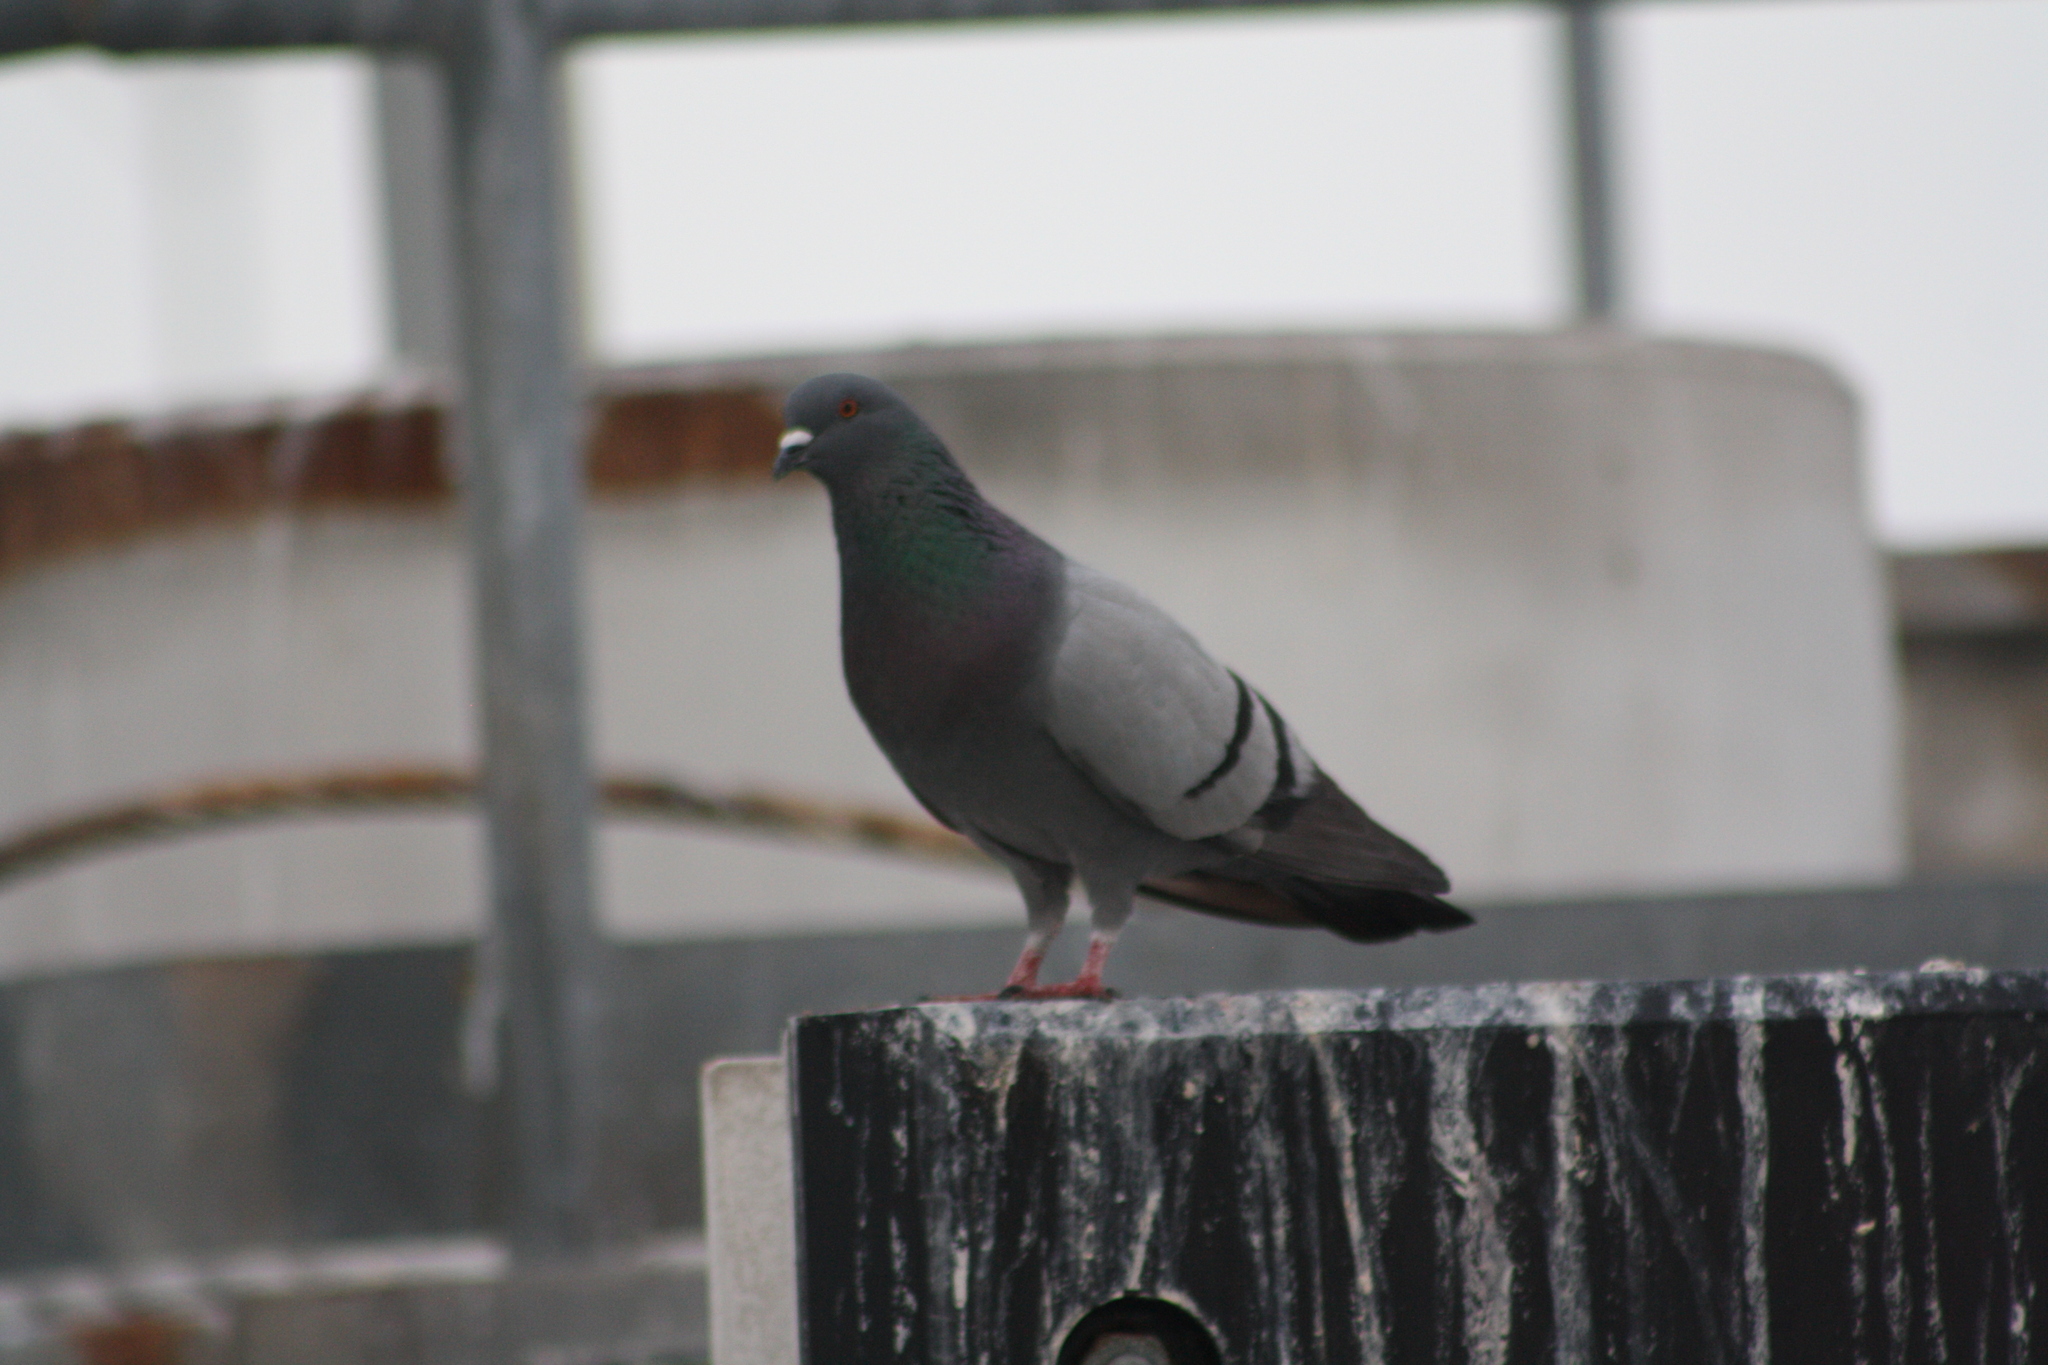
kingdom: Animalia
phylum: Chordata
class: Aves
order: Columbiformes
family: Columbidae
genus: Columba
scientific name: Columba livia
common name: Rock pigeon
